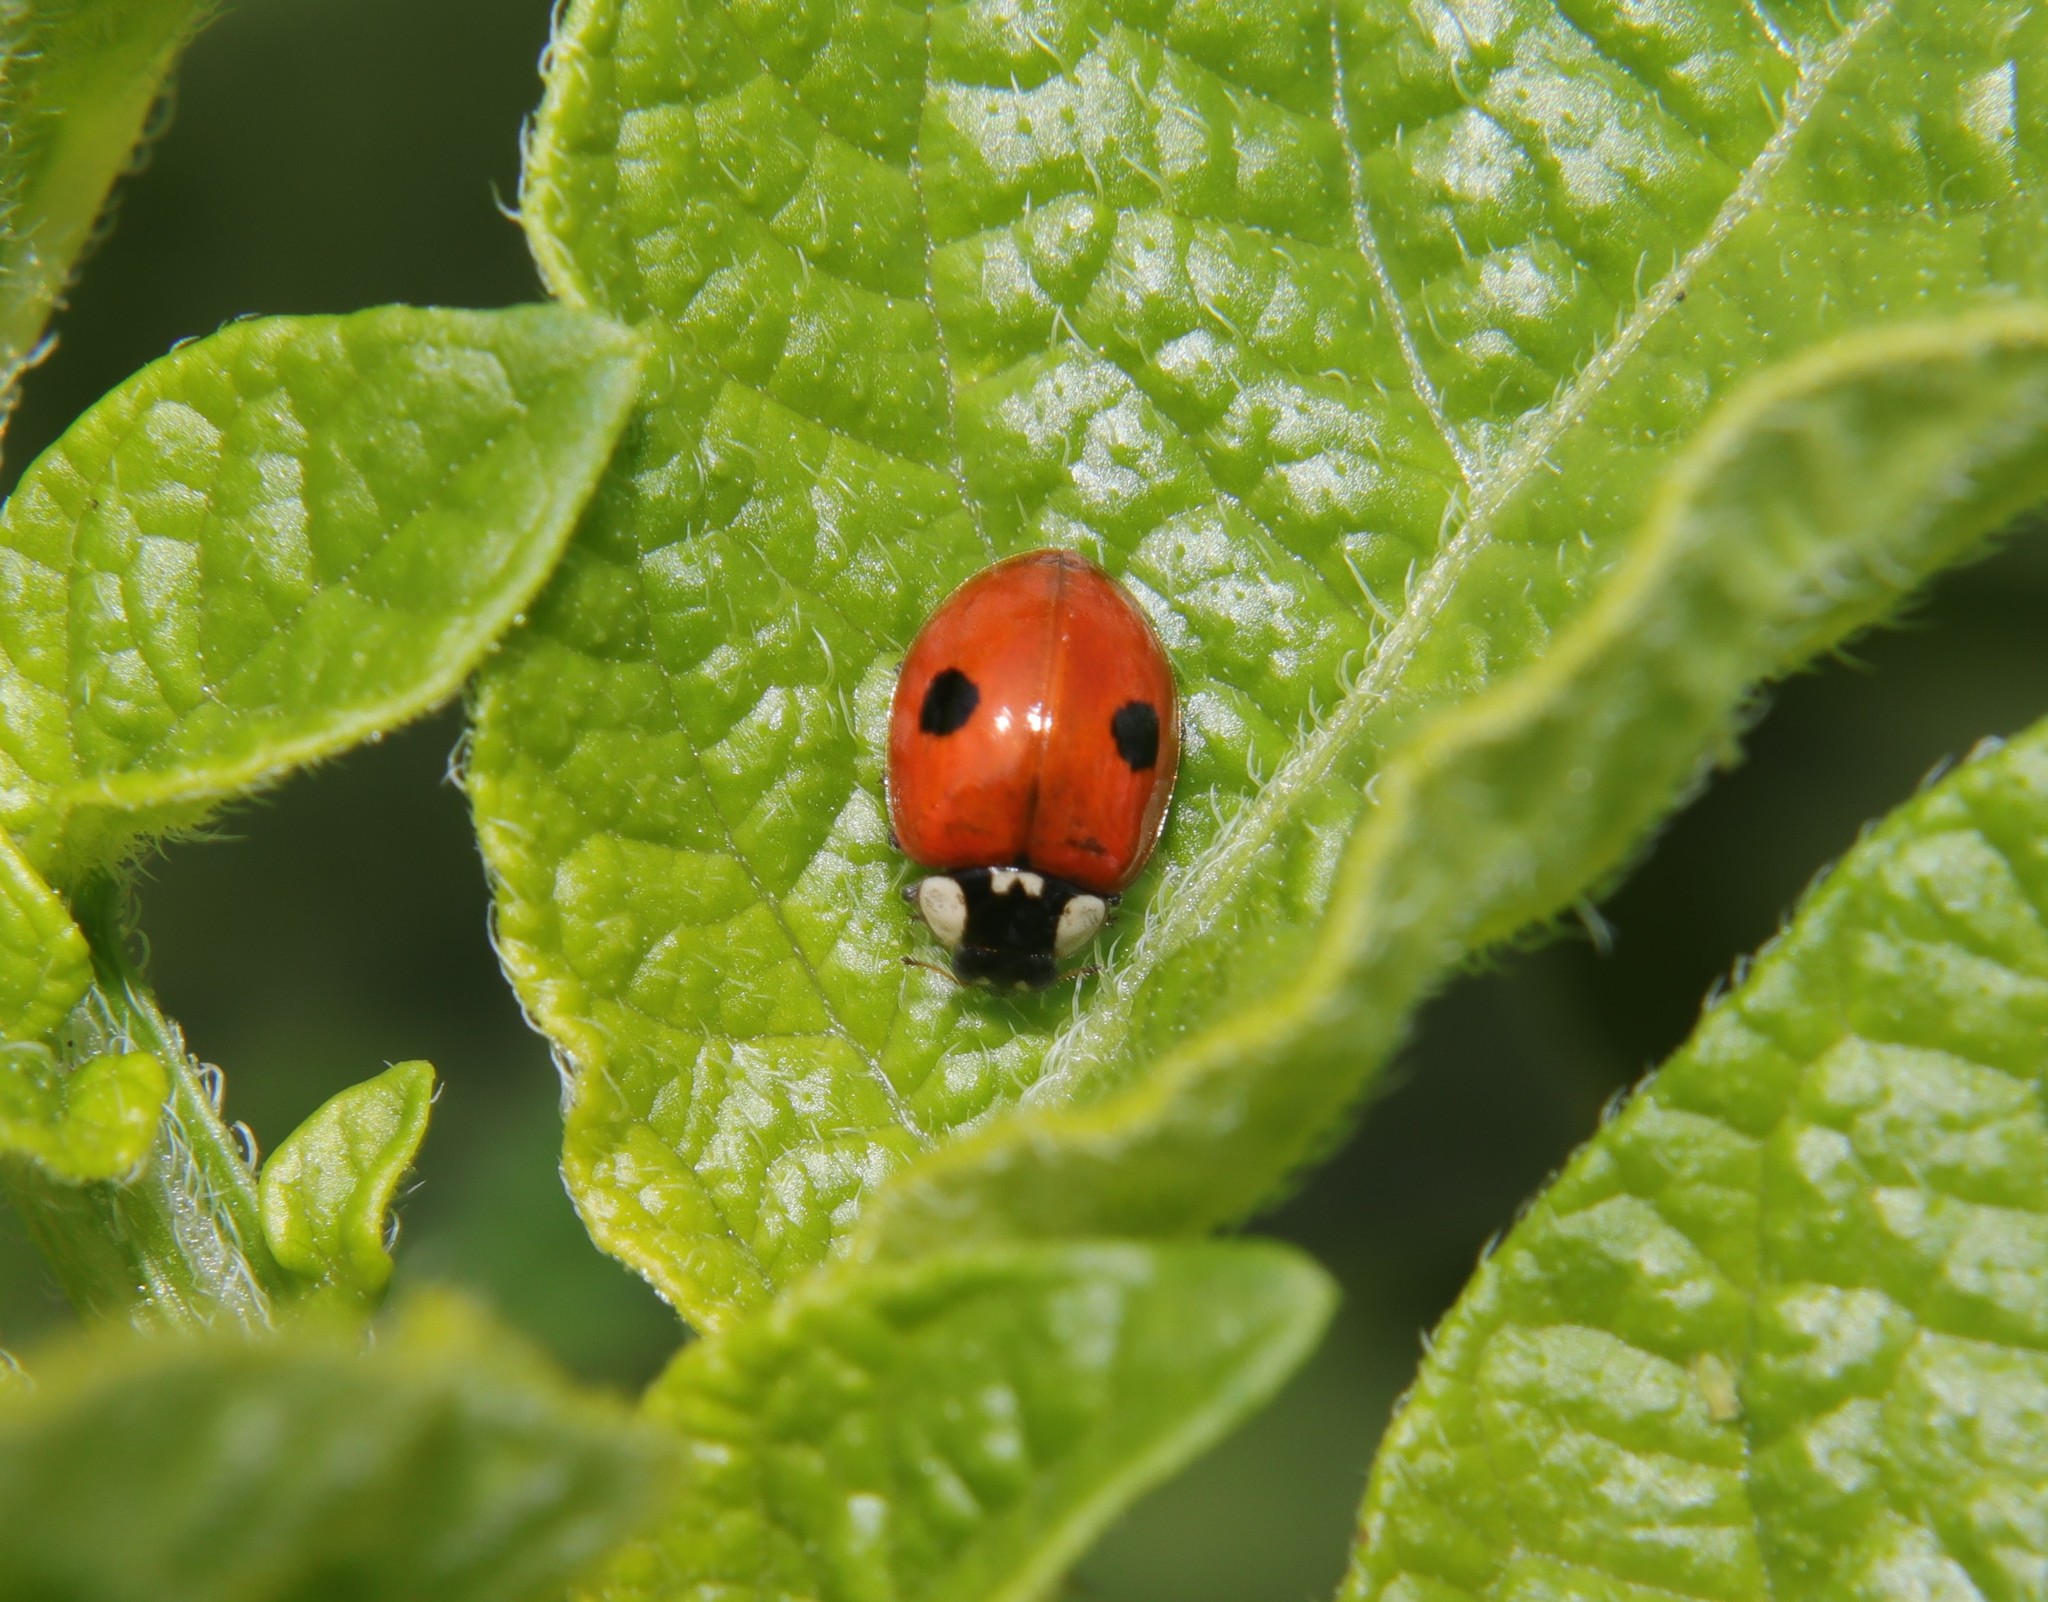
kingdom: Animalia
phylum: Arthropoda
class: Insecta
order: Coleoptera
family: Coccinellidae
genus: Adalia
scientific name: Adalia bipunctata
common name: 2-spot ladybird
